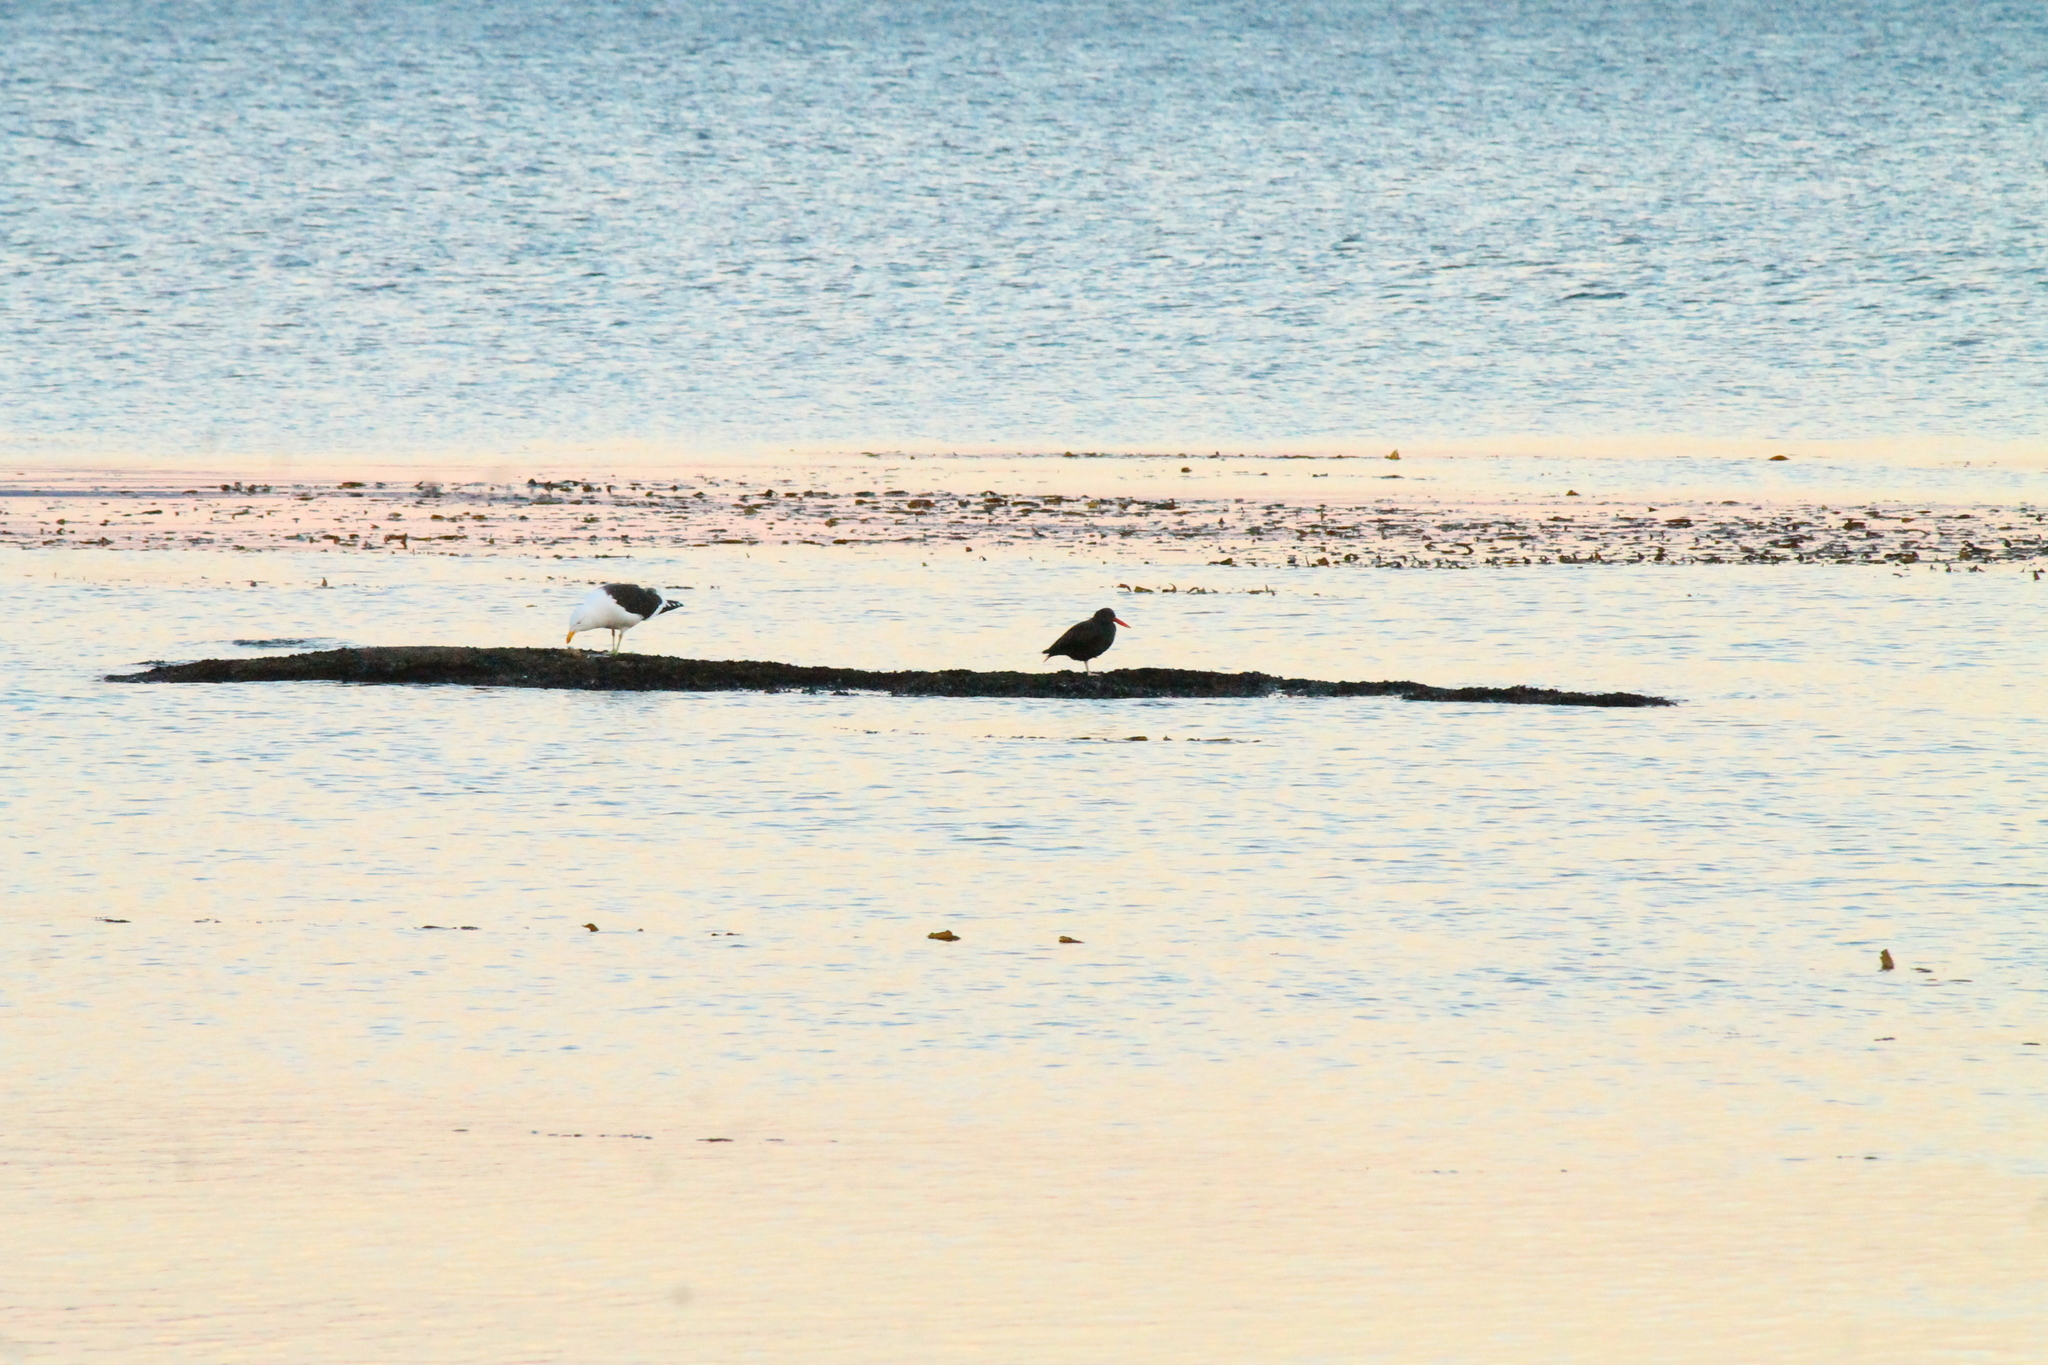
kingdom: Animalia
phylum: Chordata
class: Aves
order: Charadriiformes
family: Haematopodidae
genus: Haematopus
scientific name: Haematopus ater
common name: Blackish oystercatcher
